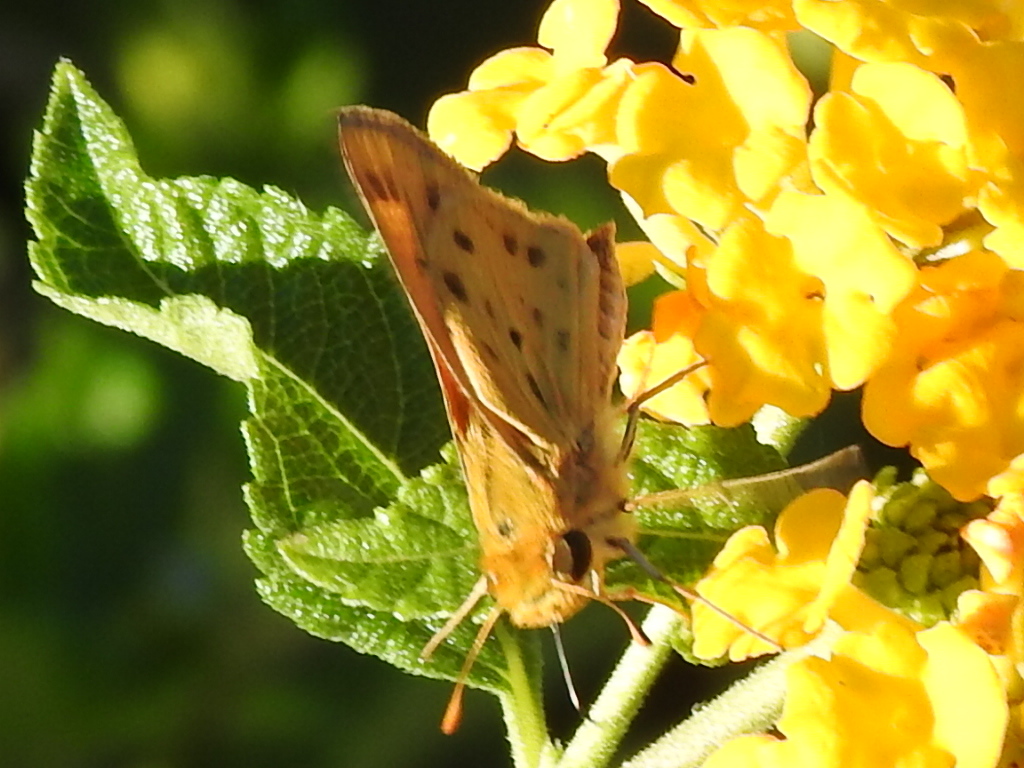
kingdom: Animalia
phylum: Arthropoda
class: Insecta
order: Lepidoptera
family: Hesperiidae
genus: Hylephila
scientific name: Hylephila phyleus
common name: Fiery skipper
